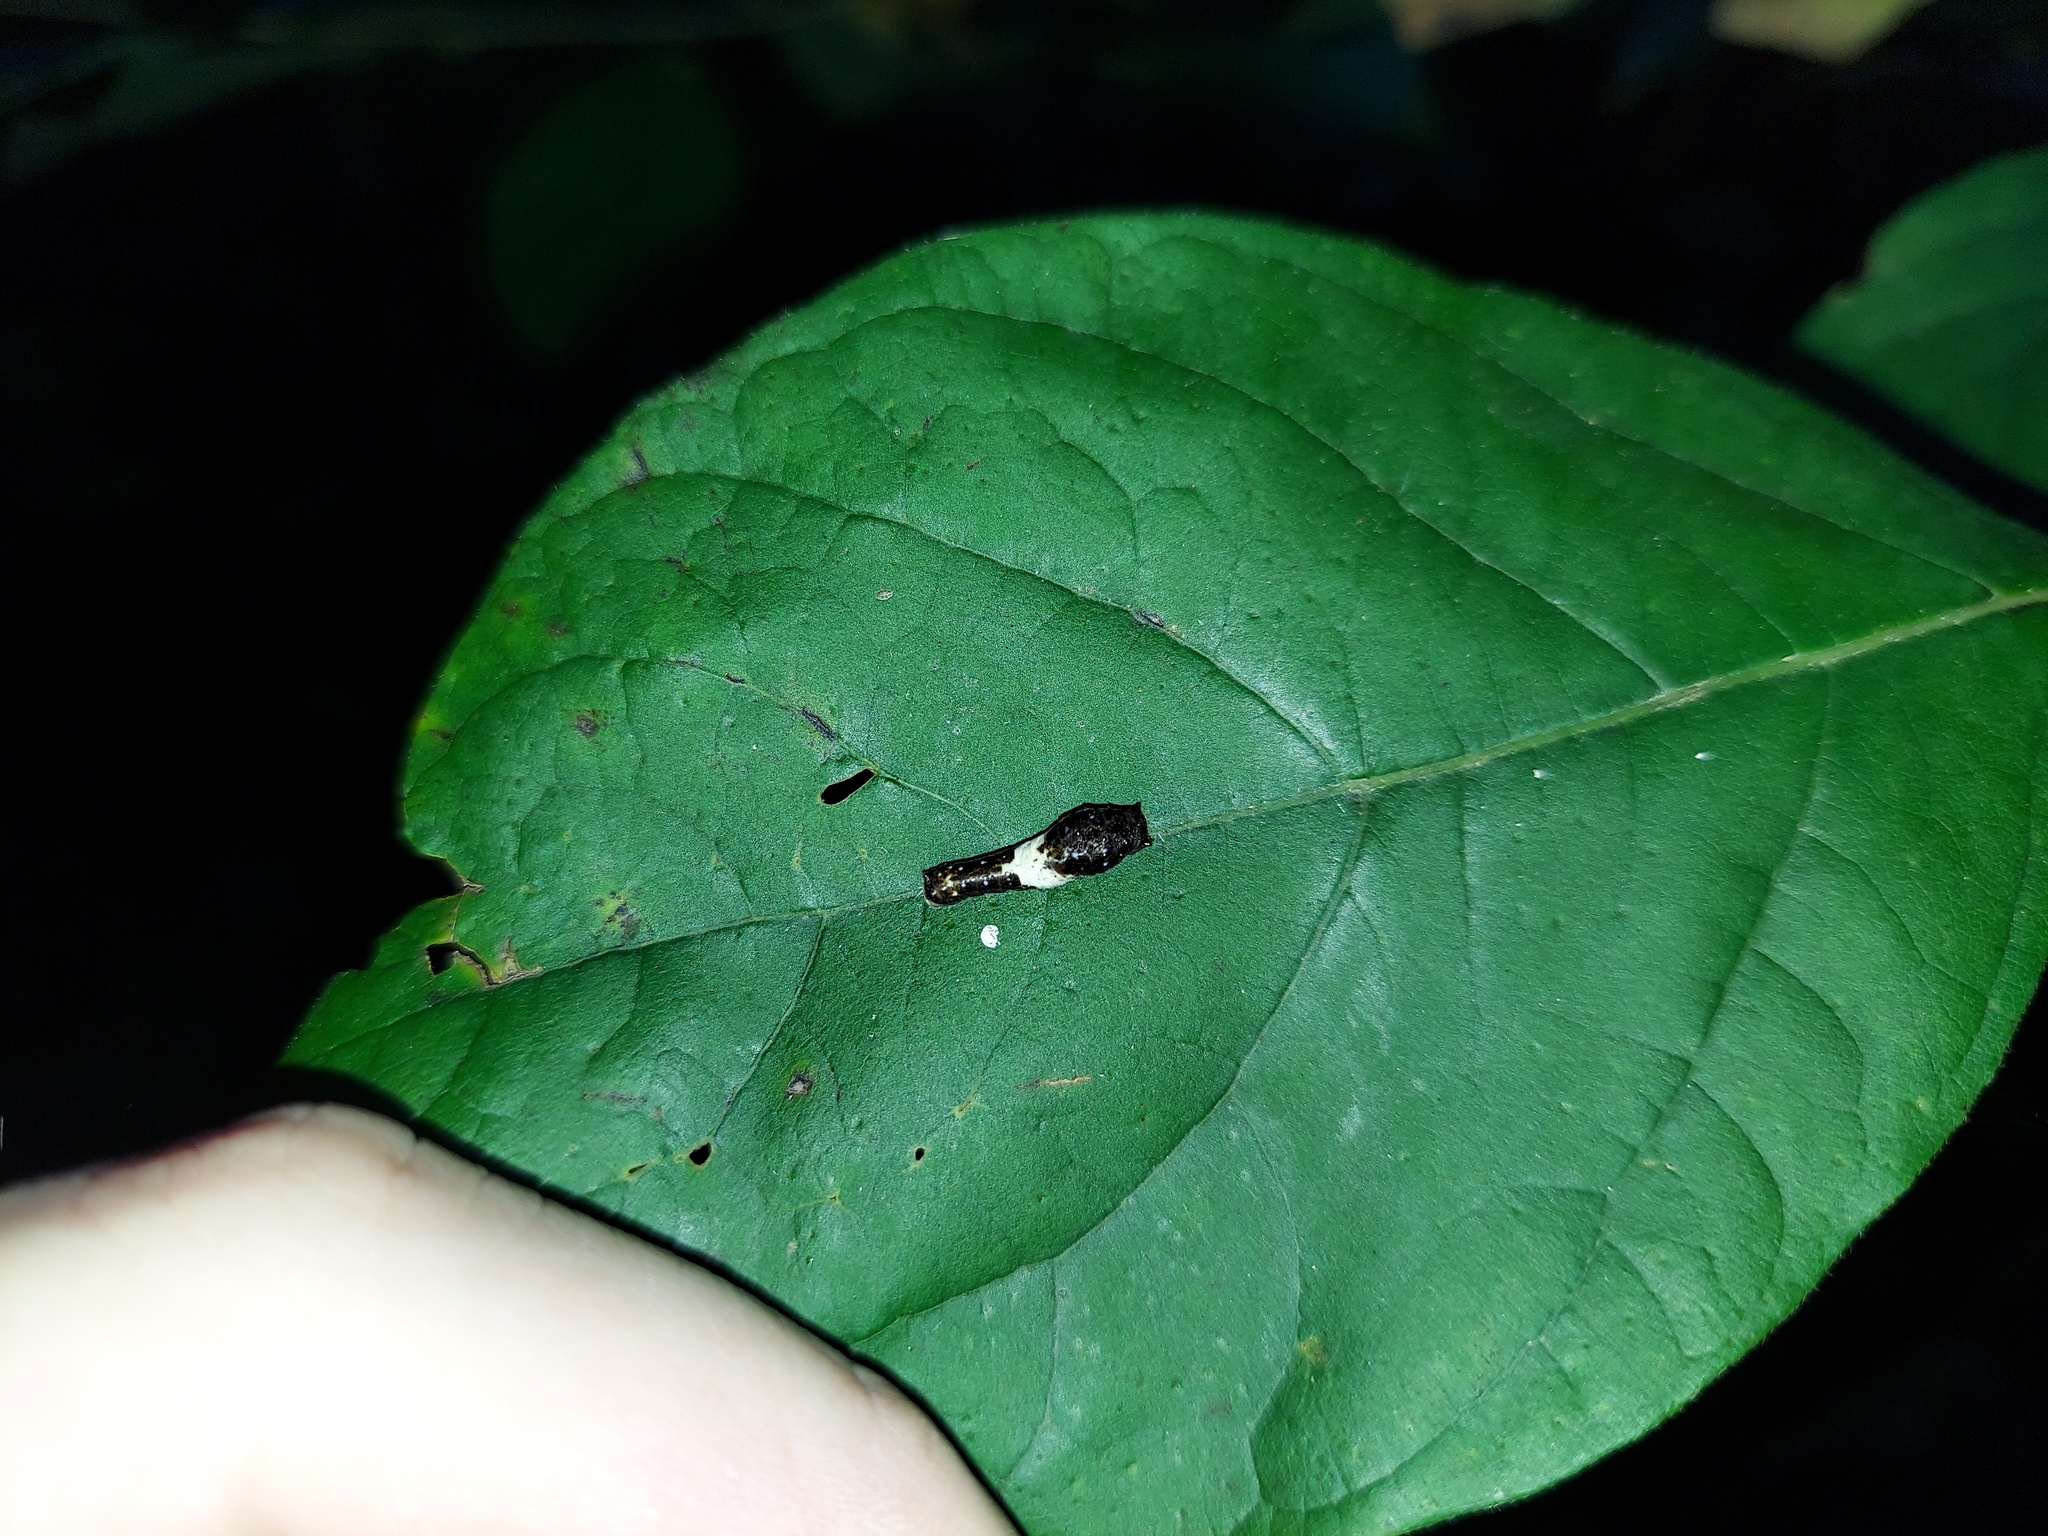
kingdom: Animalia
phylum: Arthropoda
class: Insecta
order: Lepidoptera
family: Papilionidae
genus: Papilio
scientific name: Papilio glaucus
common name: Tiger swallowtail
